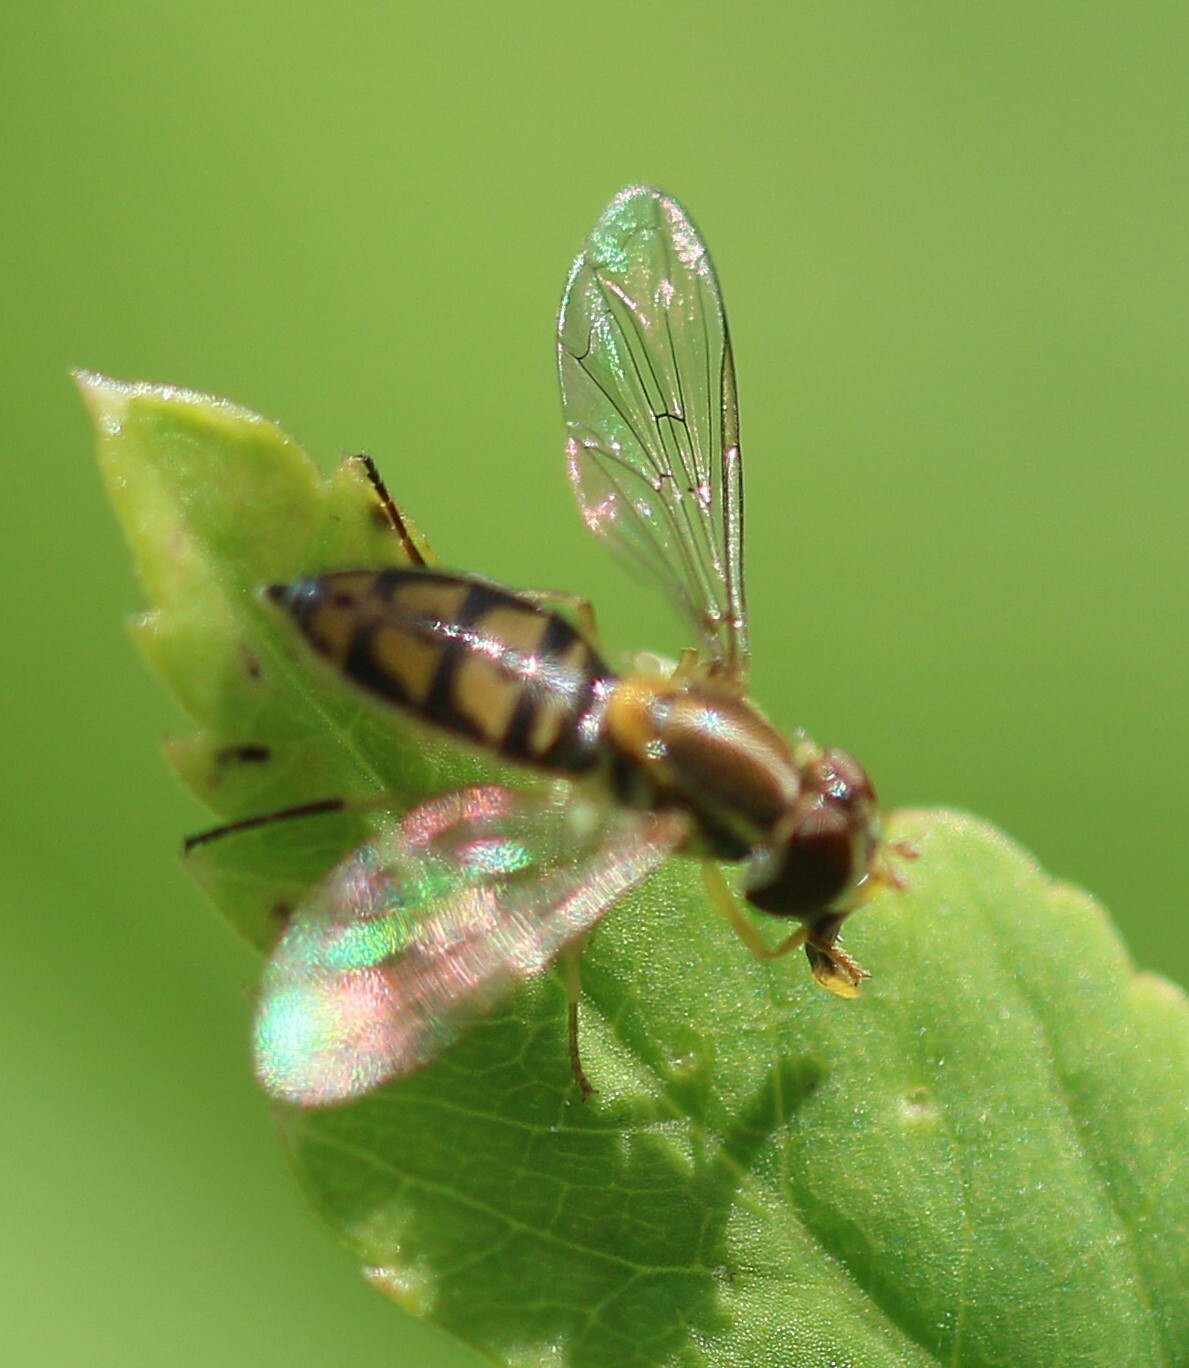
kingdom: Animalia
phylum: Arthropoda
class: Insecta
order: Diptera
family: Syrphidae
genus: Toxomerus
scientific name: Toxomerus marginatus
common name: Syrphid fly
